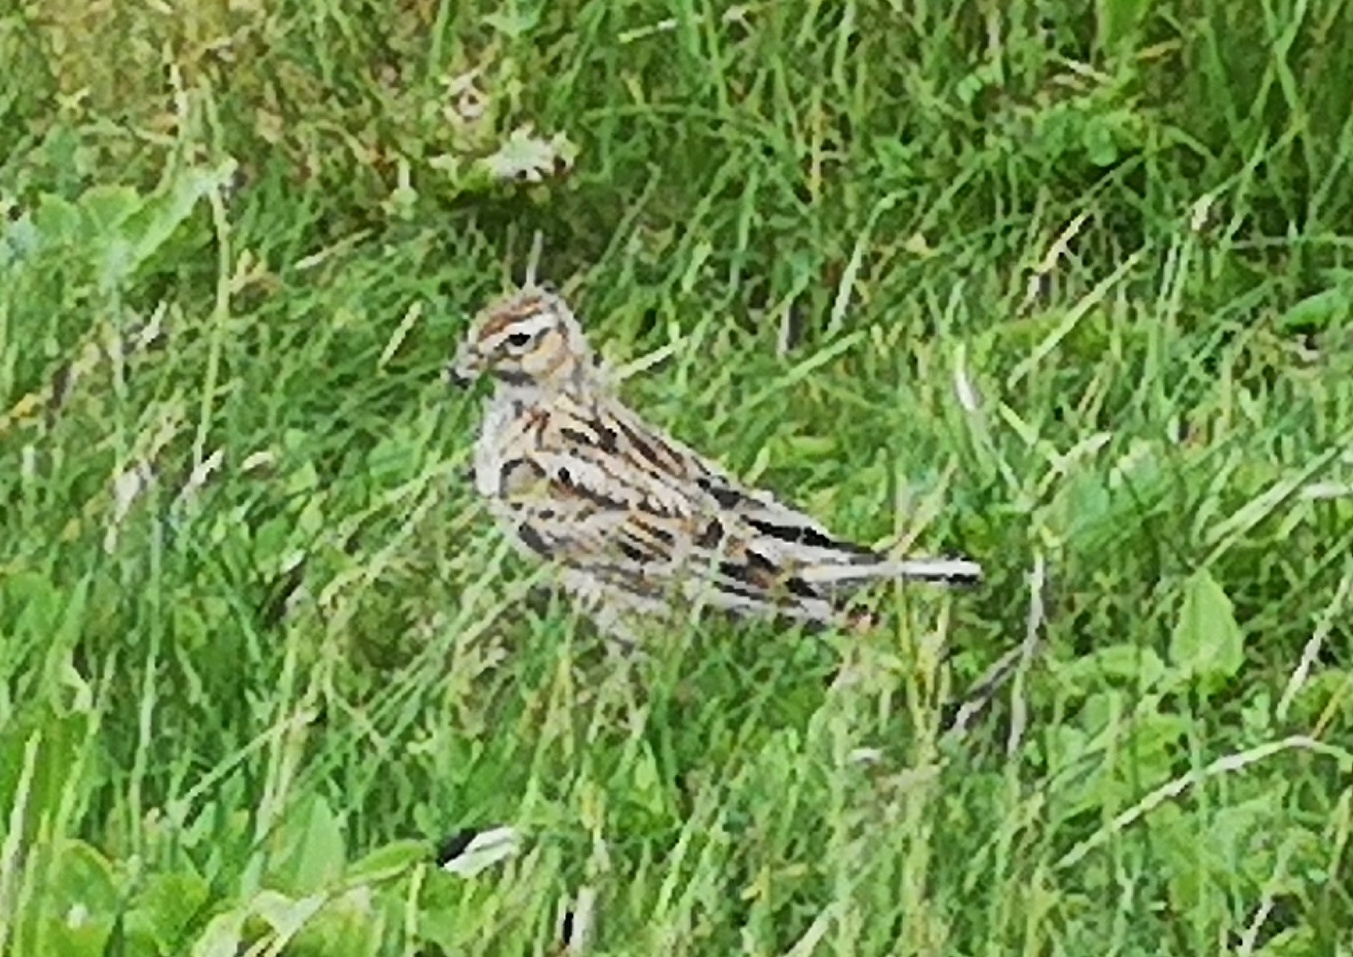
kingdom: Animalia
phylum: Chordata
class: Aves
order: Passeriformes
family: Alaudidae
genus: Alauda
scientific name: Alauda arvensis
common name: Eurasian skylark
